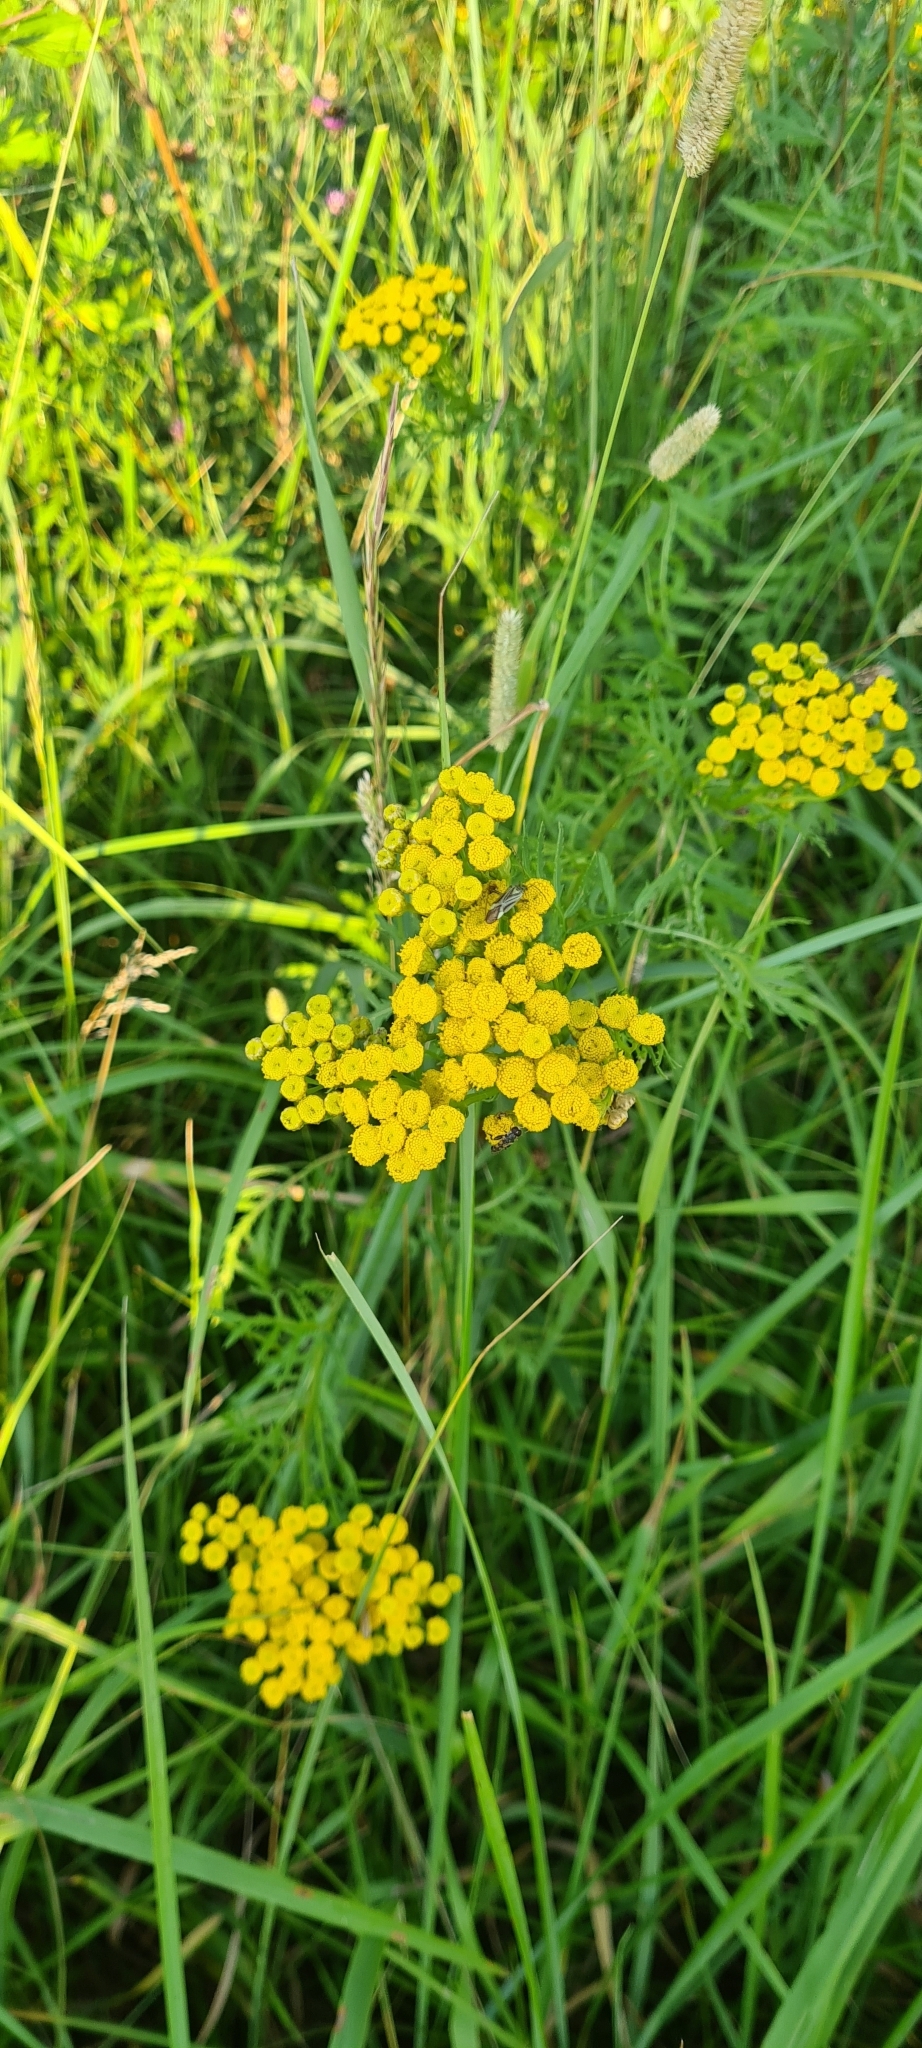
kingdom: Plantae
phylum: Tracheophyta
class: Magnoliopsida
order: Asterales
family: Asteraceae
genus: Tanacetum
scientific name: Tanacetum vulgare
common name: Common tansy
